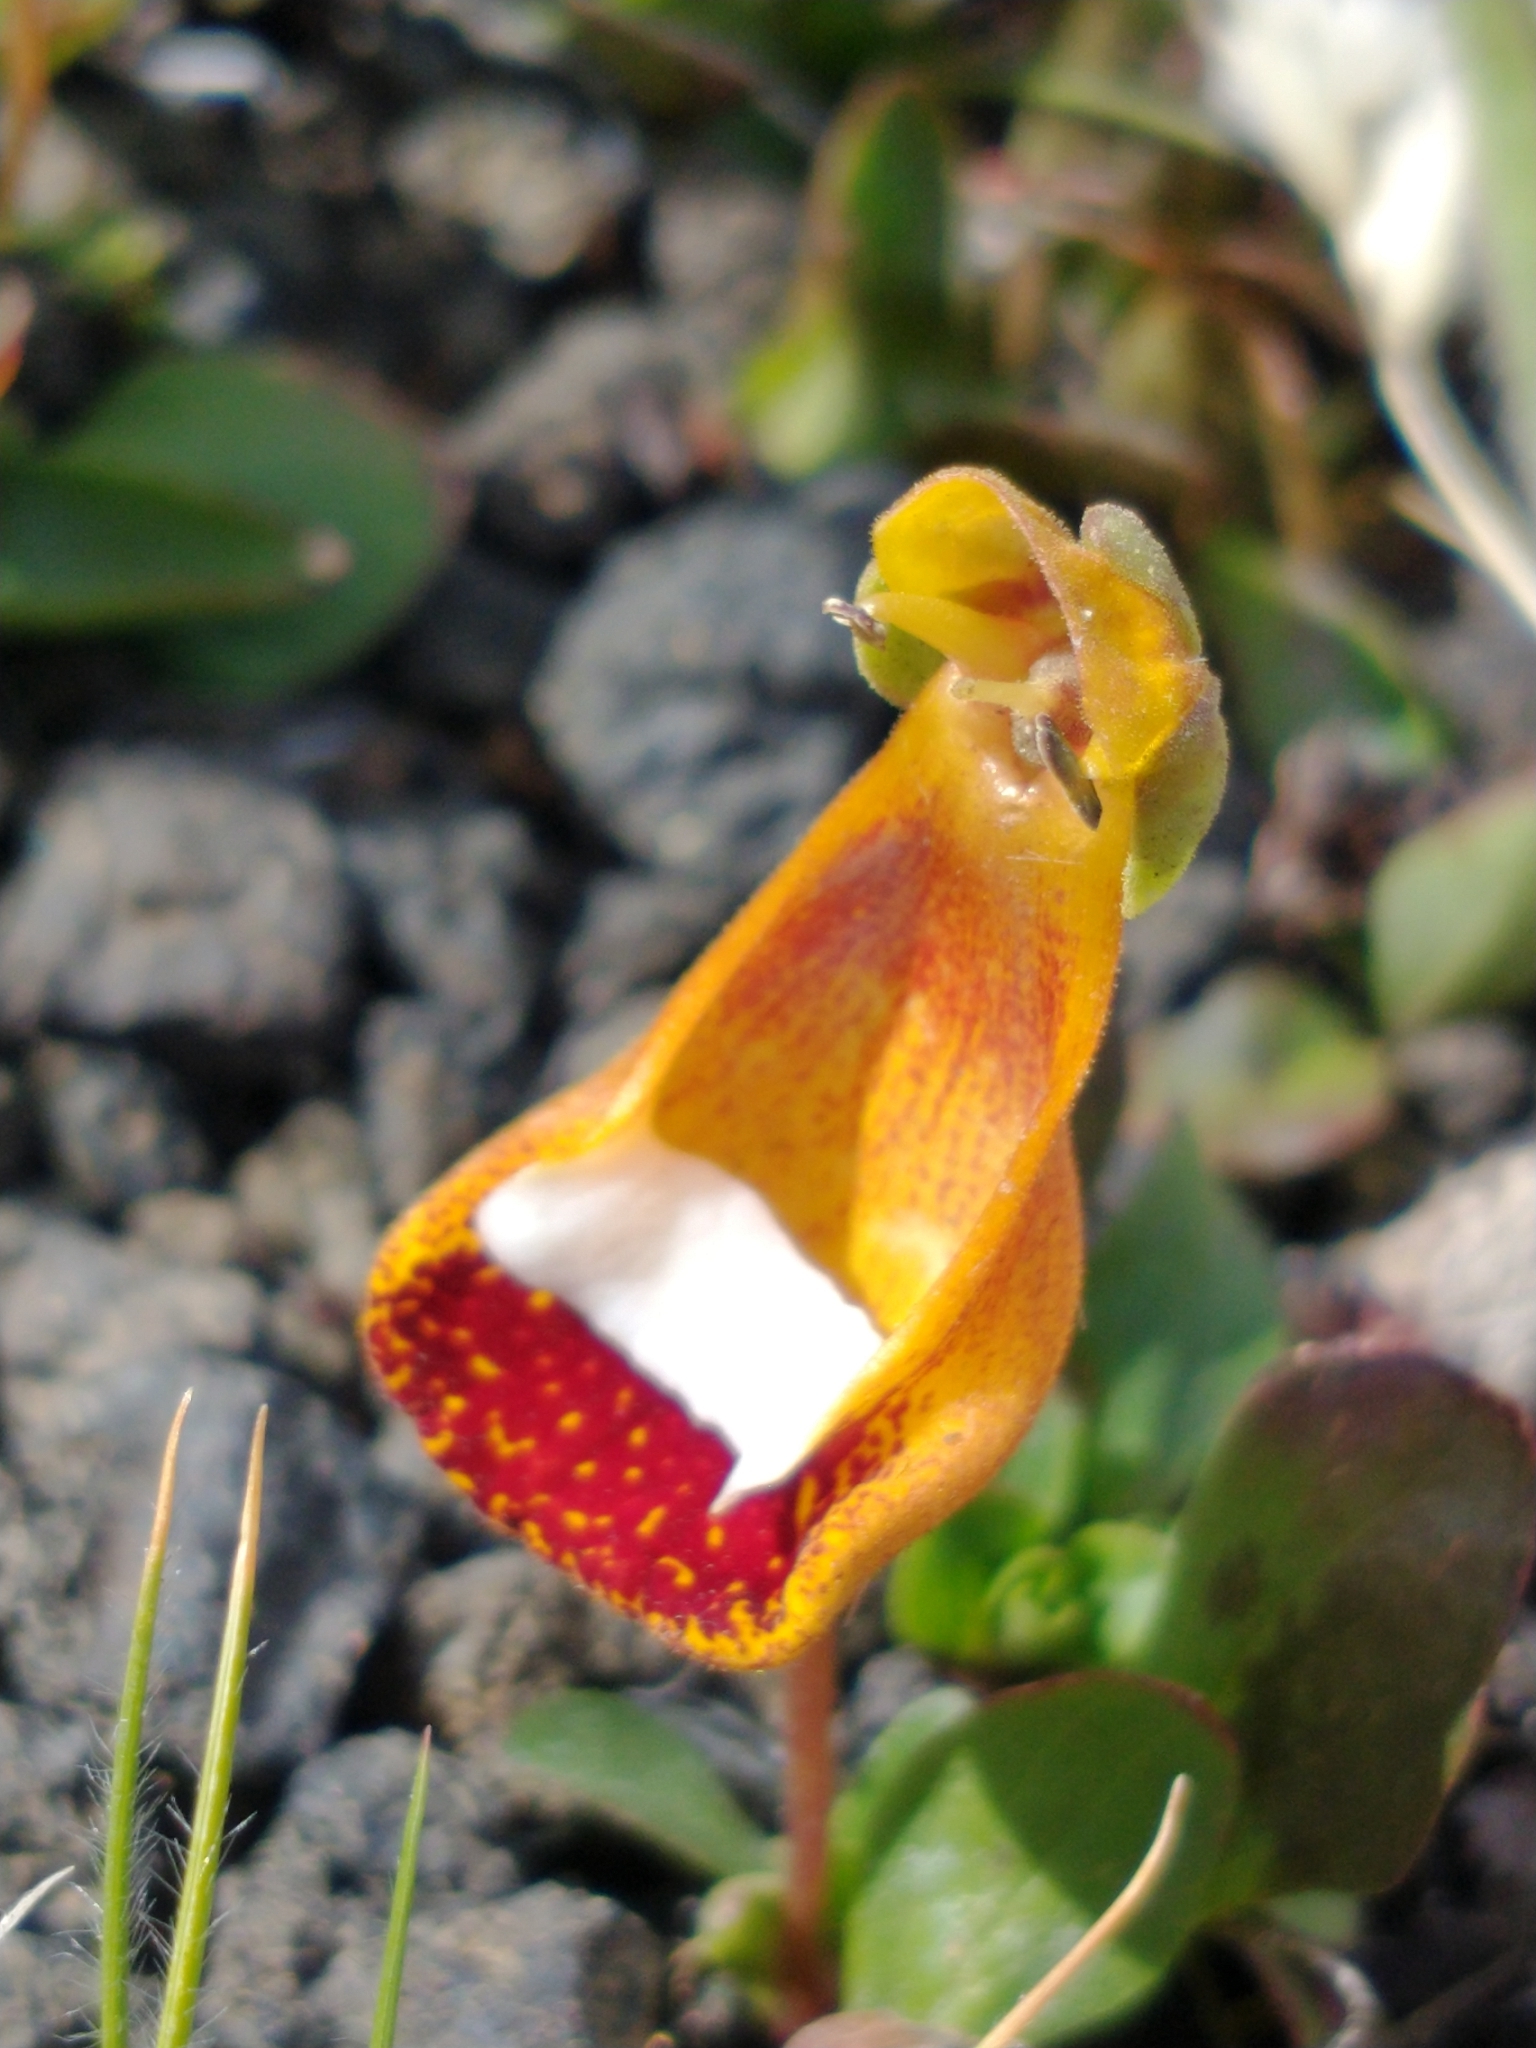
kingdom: Plantae
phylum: Tracheophyta
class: Magnoliopsida
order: Lamiales
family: Calceolariaceae
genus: Calceolaria
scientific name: Calceolaria uniflora
